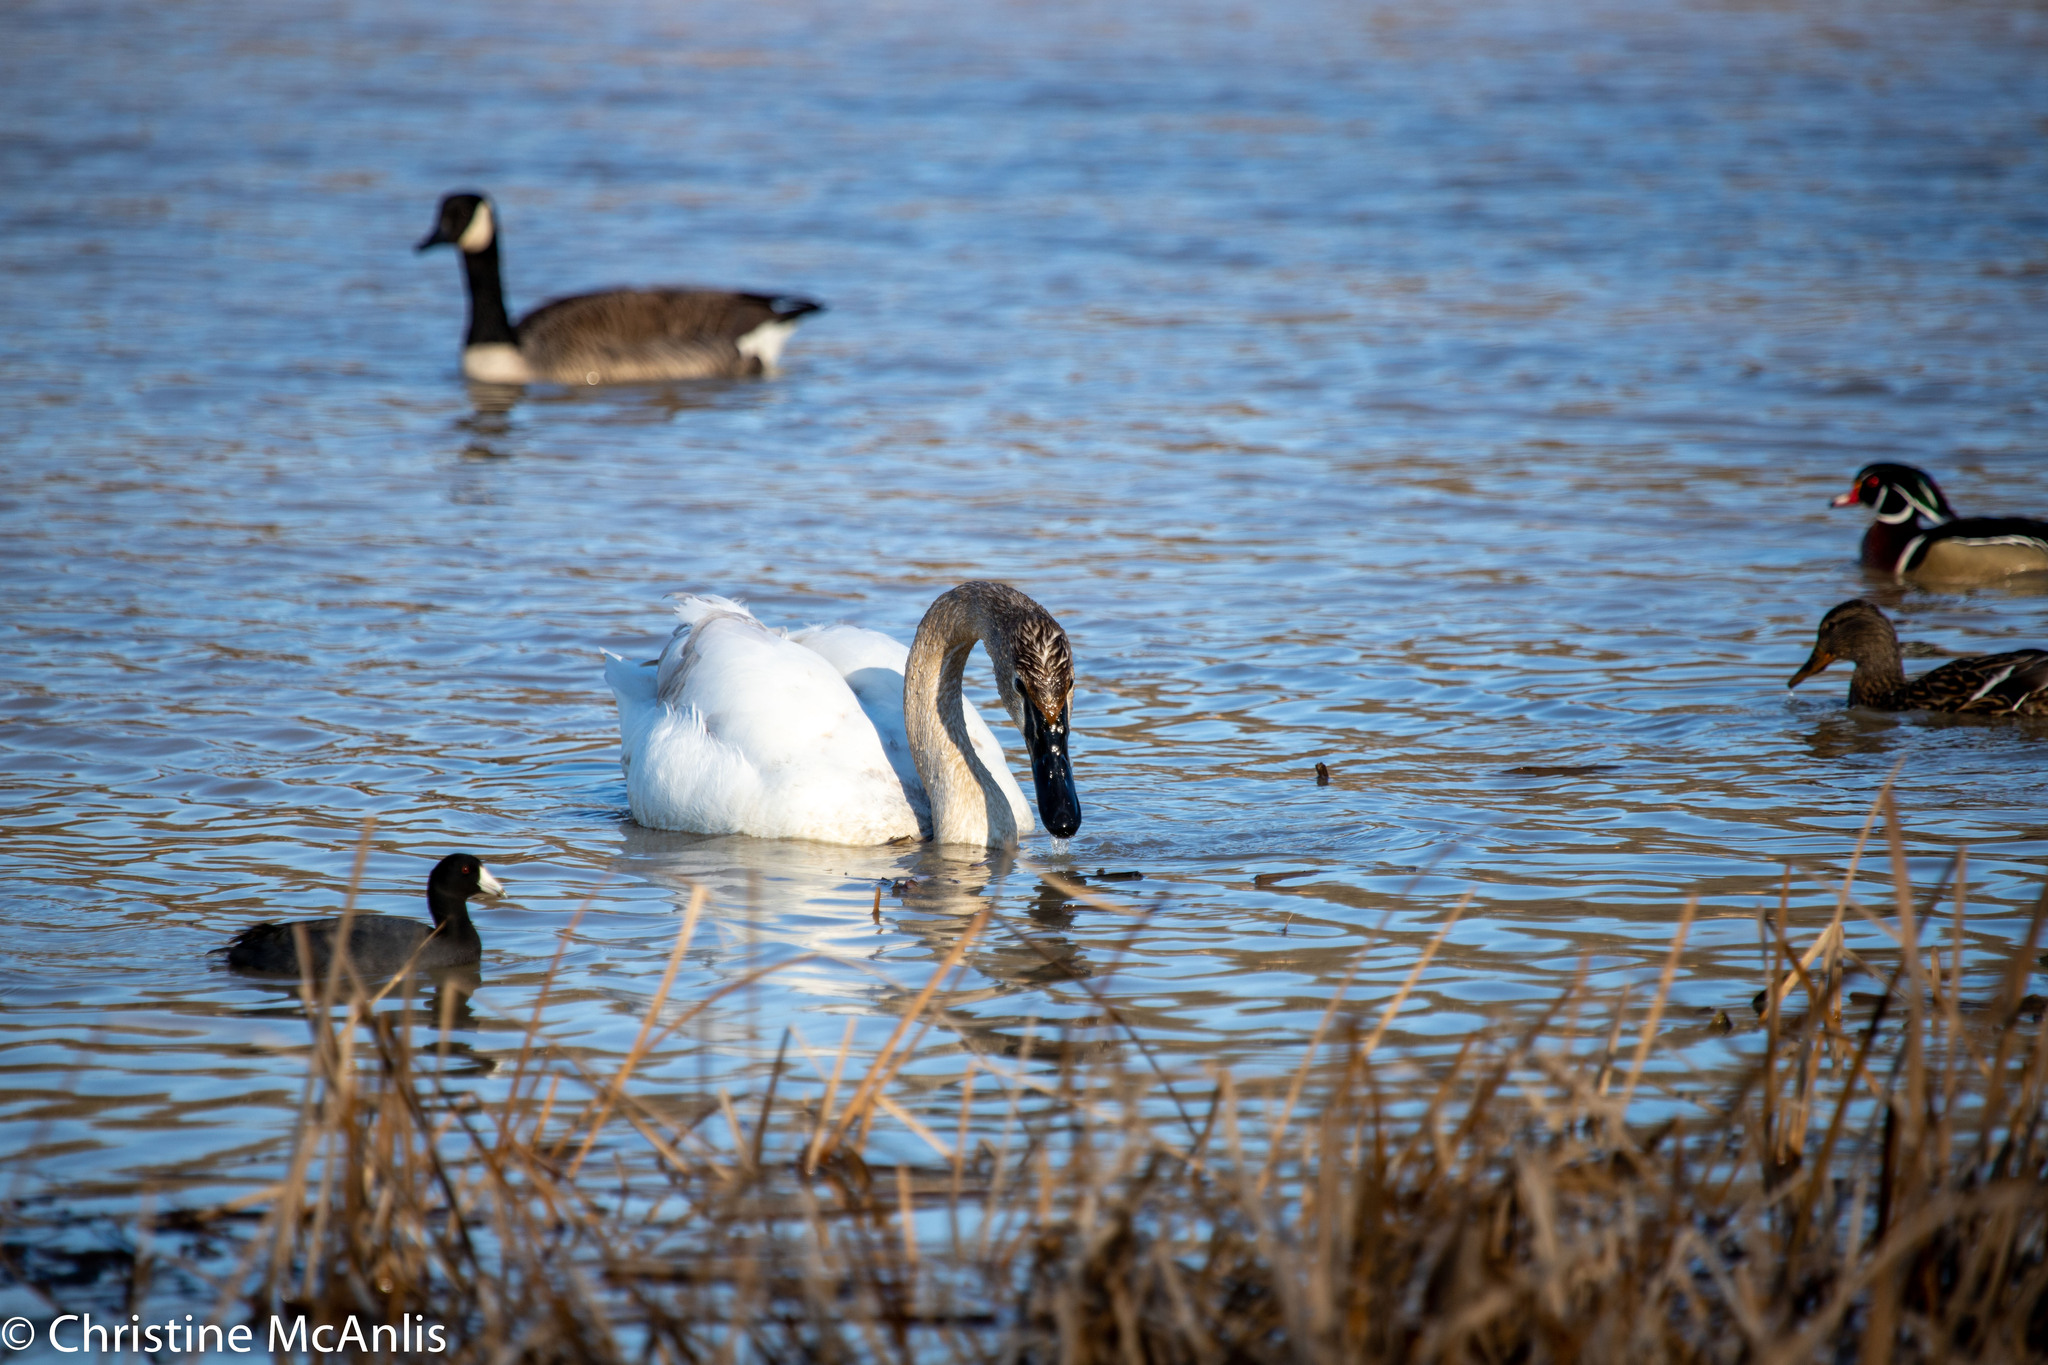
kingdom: Animalia
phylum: Chordata
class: Aves
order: Anseriformes
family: Anatidae
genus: Cygnus
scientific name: Cygnus buccinator
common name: Trumpeter swan
